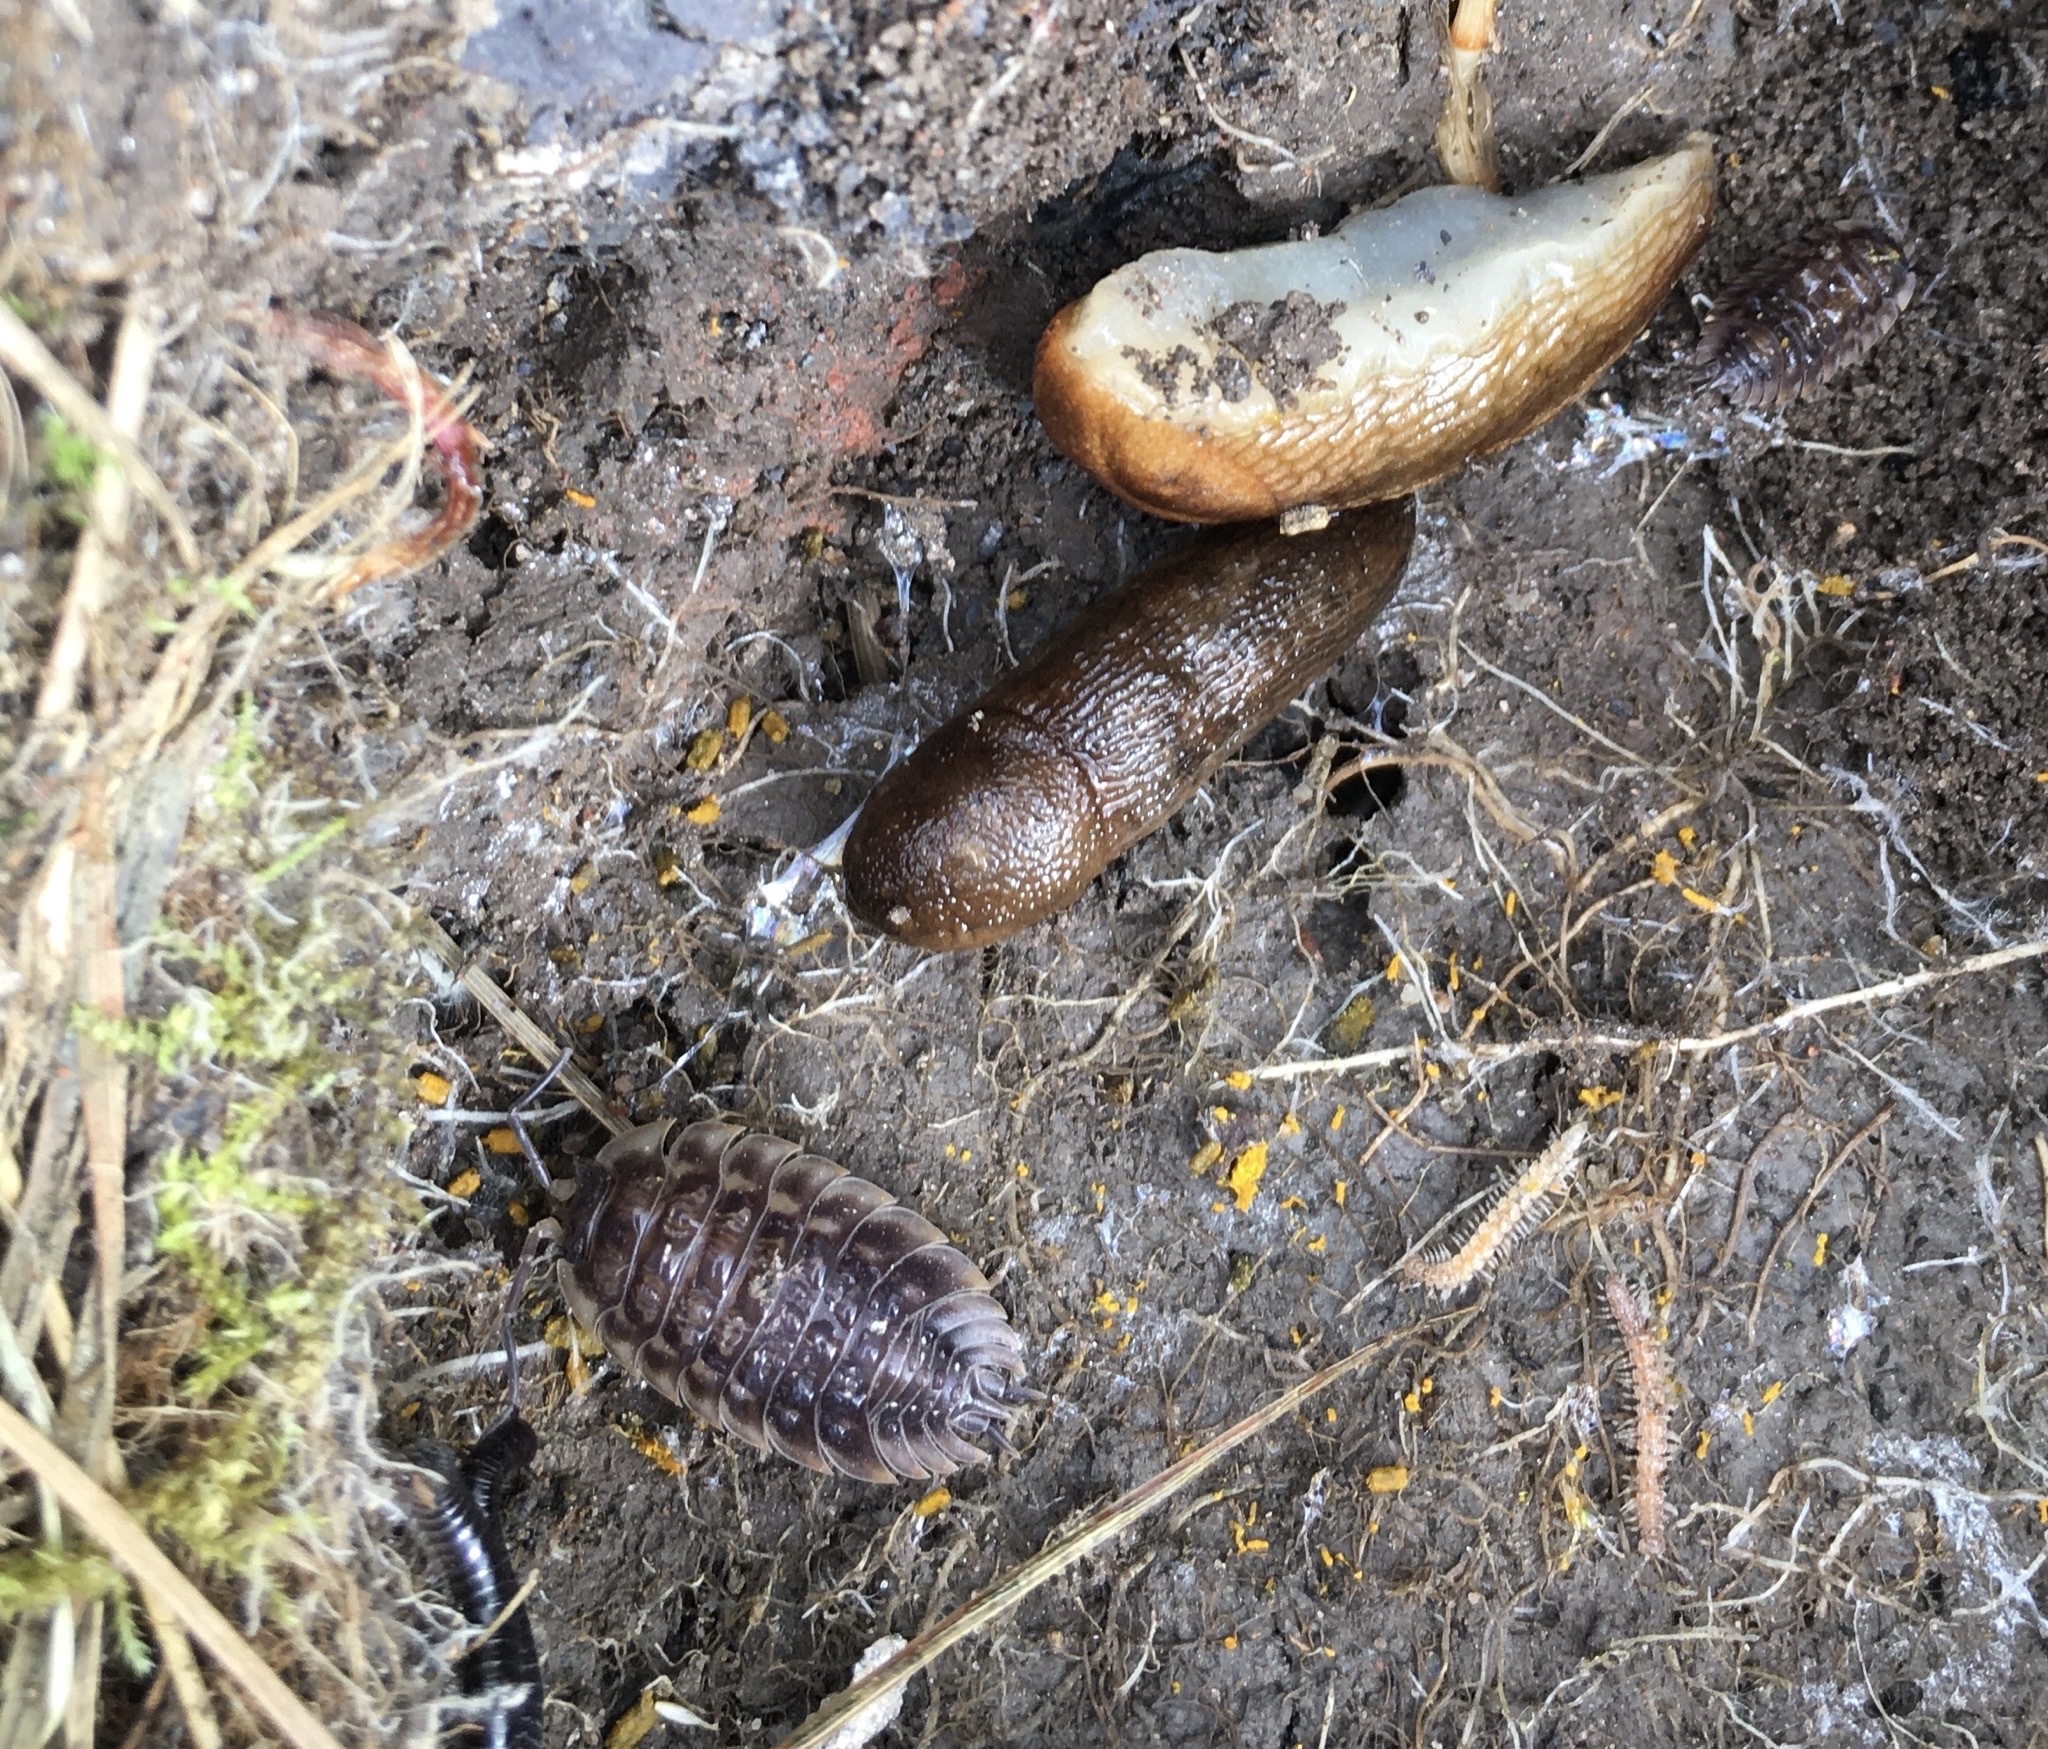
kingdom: Animalia
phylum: Mollusca
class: Gastropoda
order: Stylommatophora
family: Arionidae
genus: Arion
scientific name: Arion subfuscus
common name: Dusky arion
